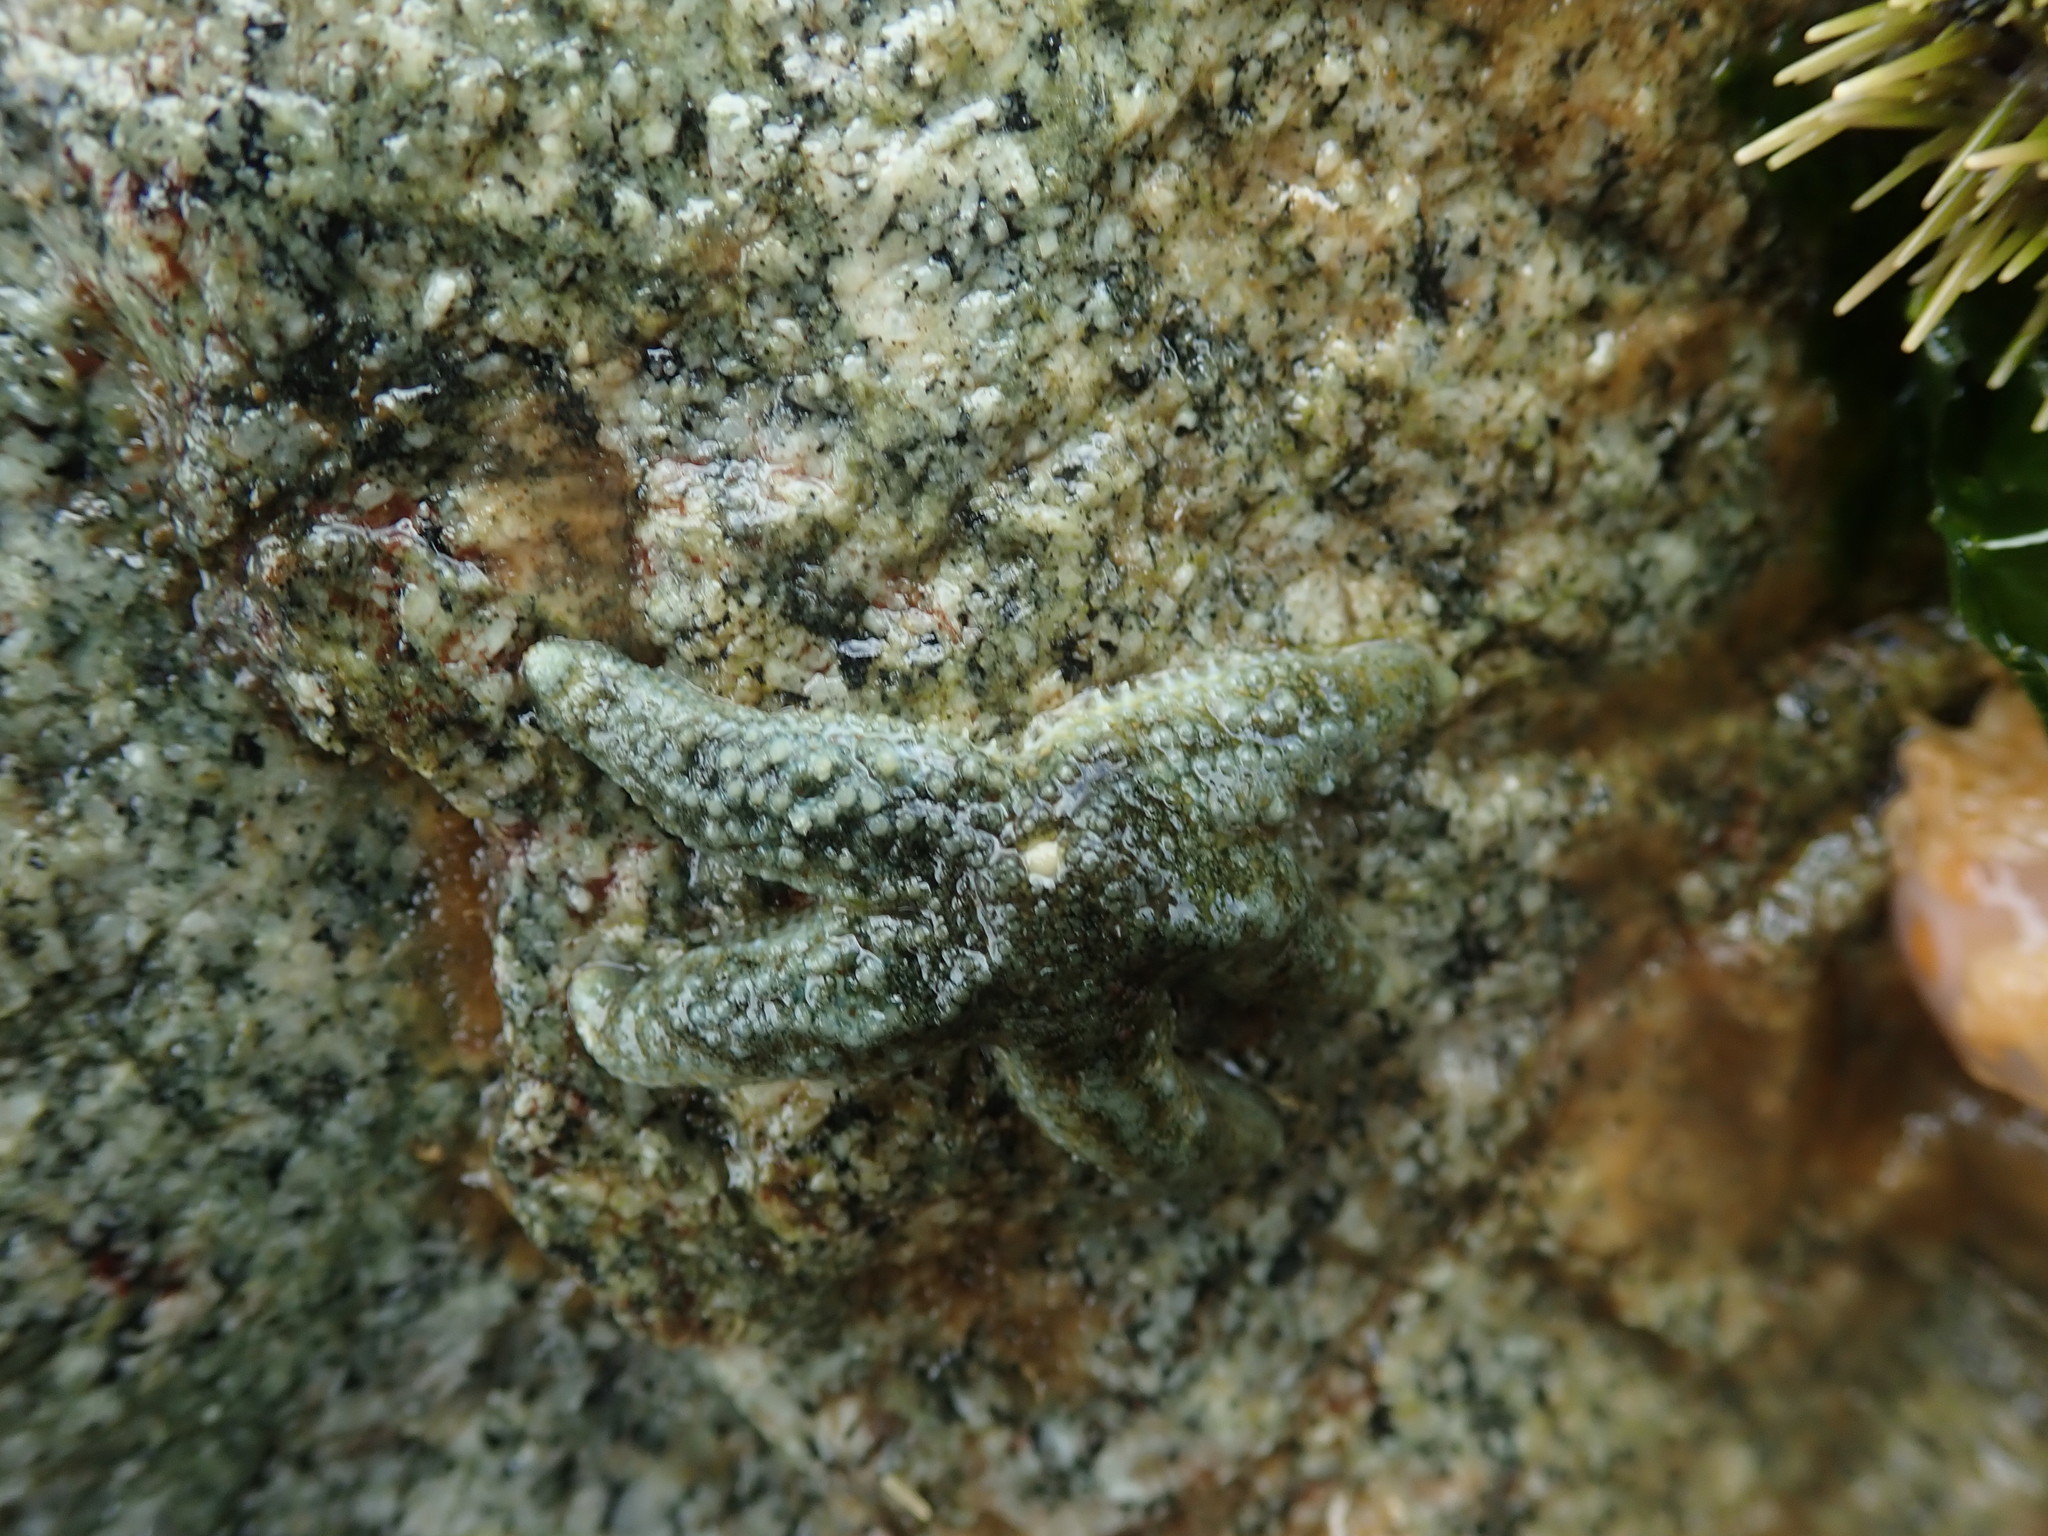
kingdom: Animalia
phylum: Echinodermata
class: Asteroidea
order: Forcipulatida
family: Asteriidae
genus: Evasterias
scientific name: Evasterias troschelii
